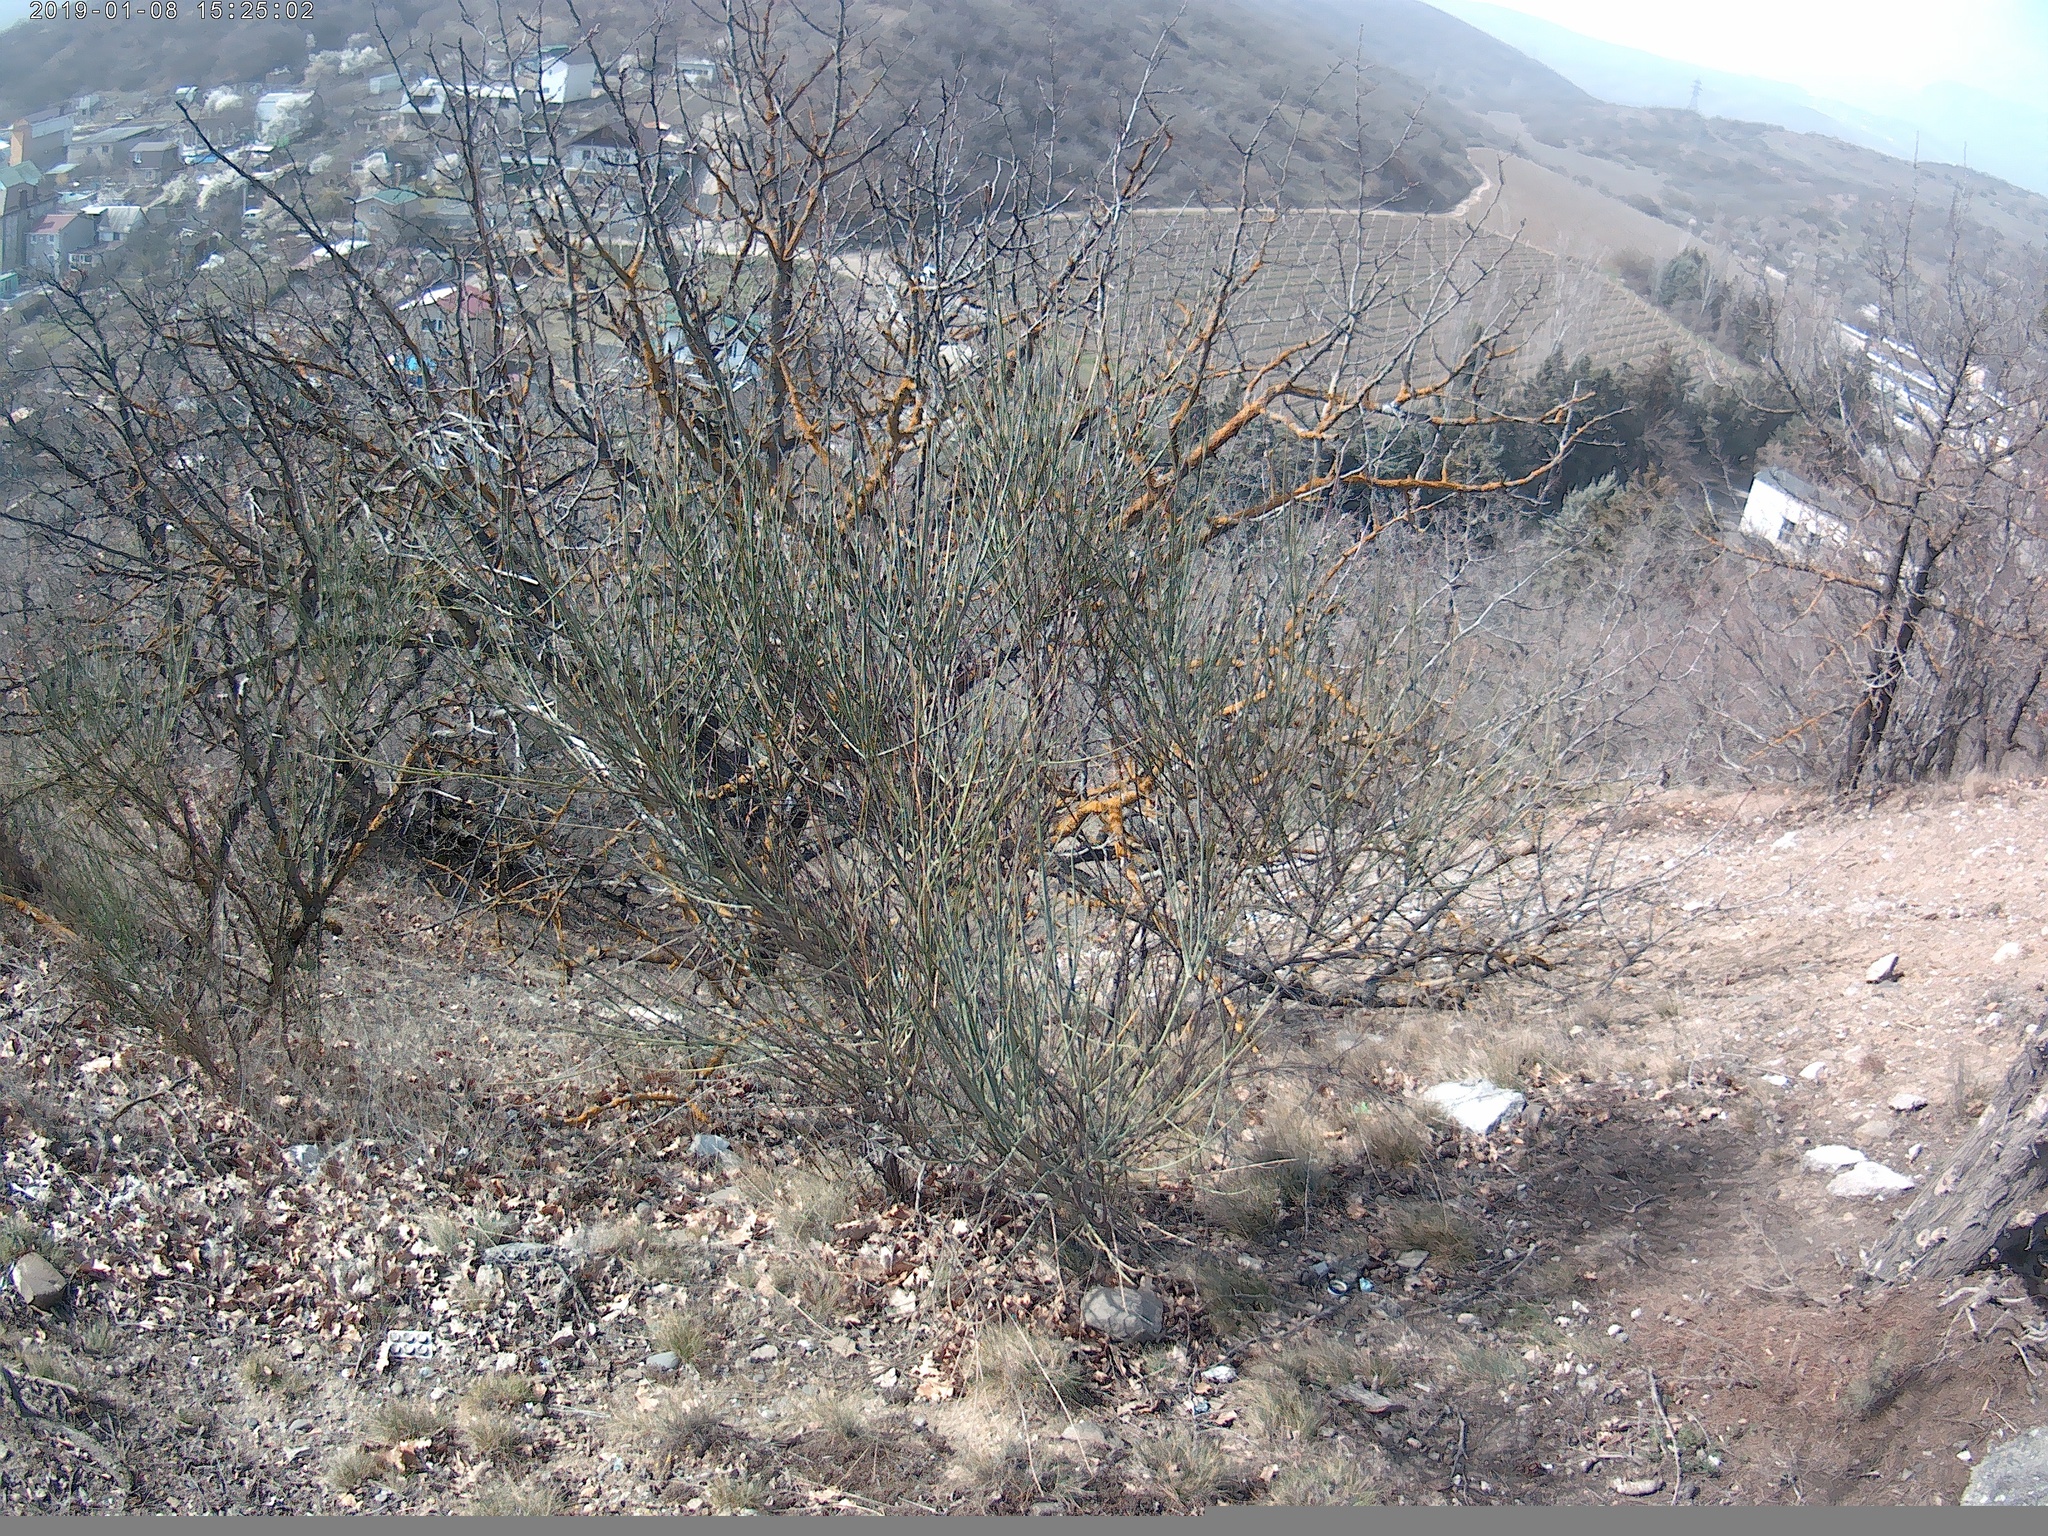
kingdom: Plantae
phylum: Tracheophyta
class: Magnoliopsida
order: Fabales
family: Fabaceae
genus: Spartium
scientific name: Spartium junceum
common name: Spanish broom
